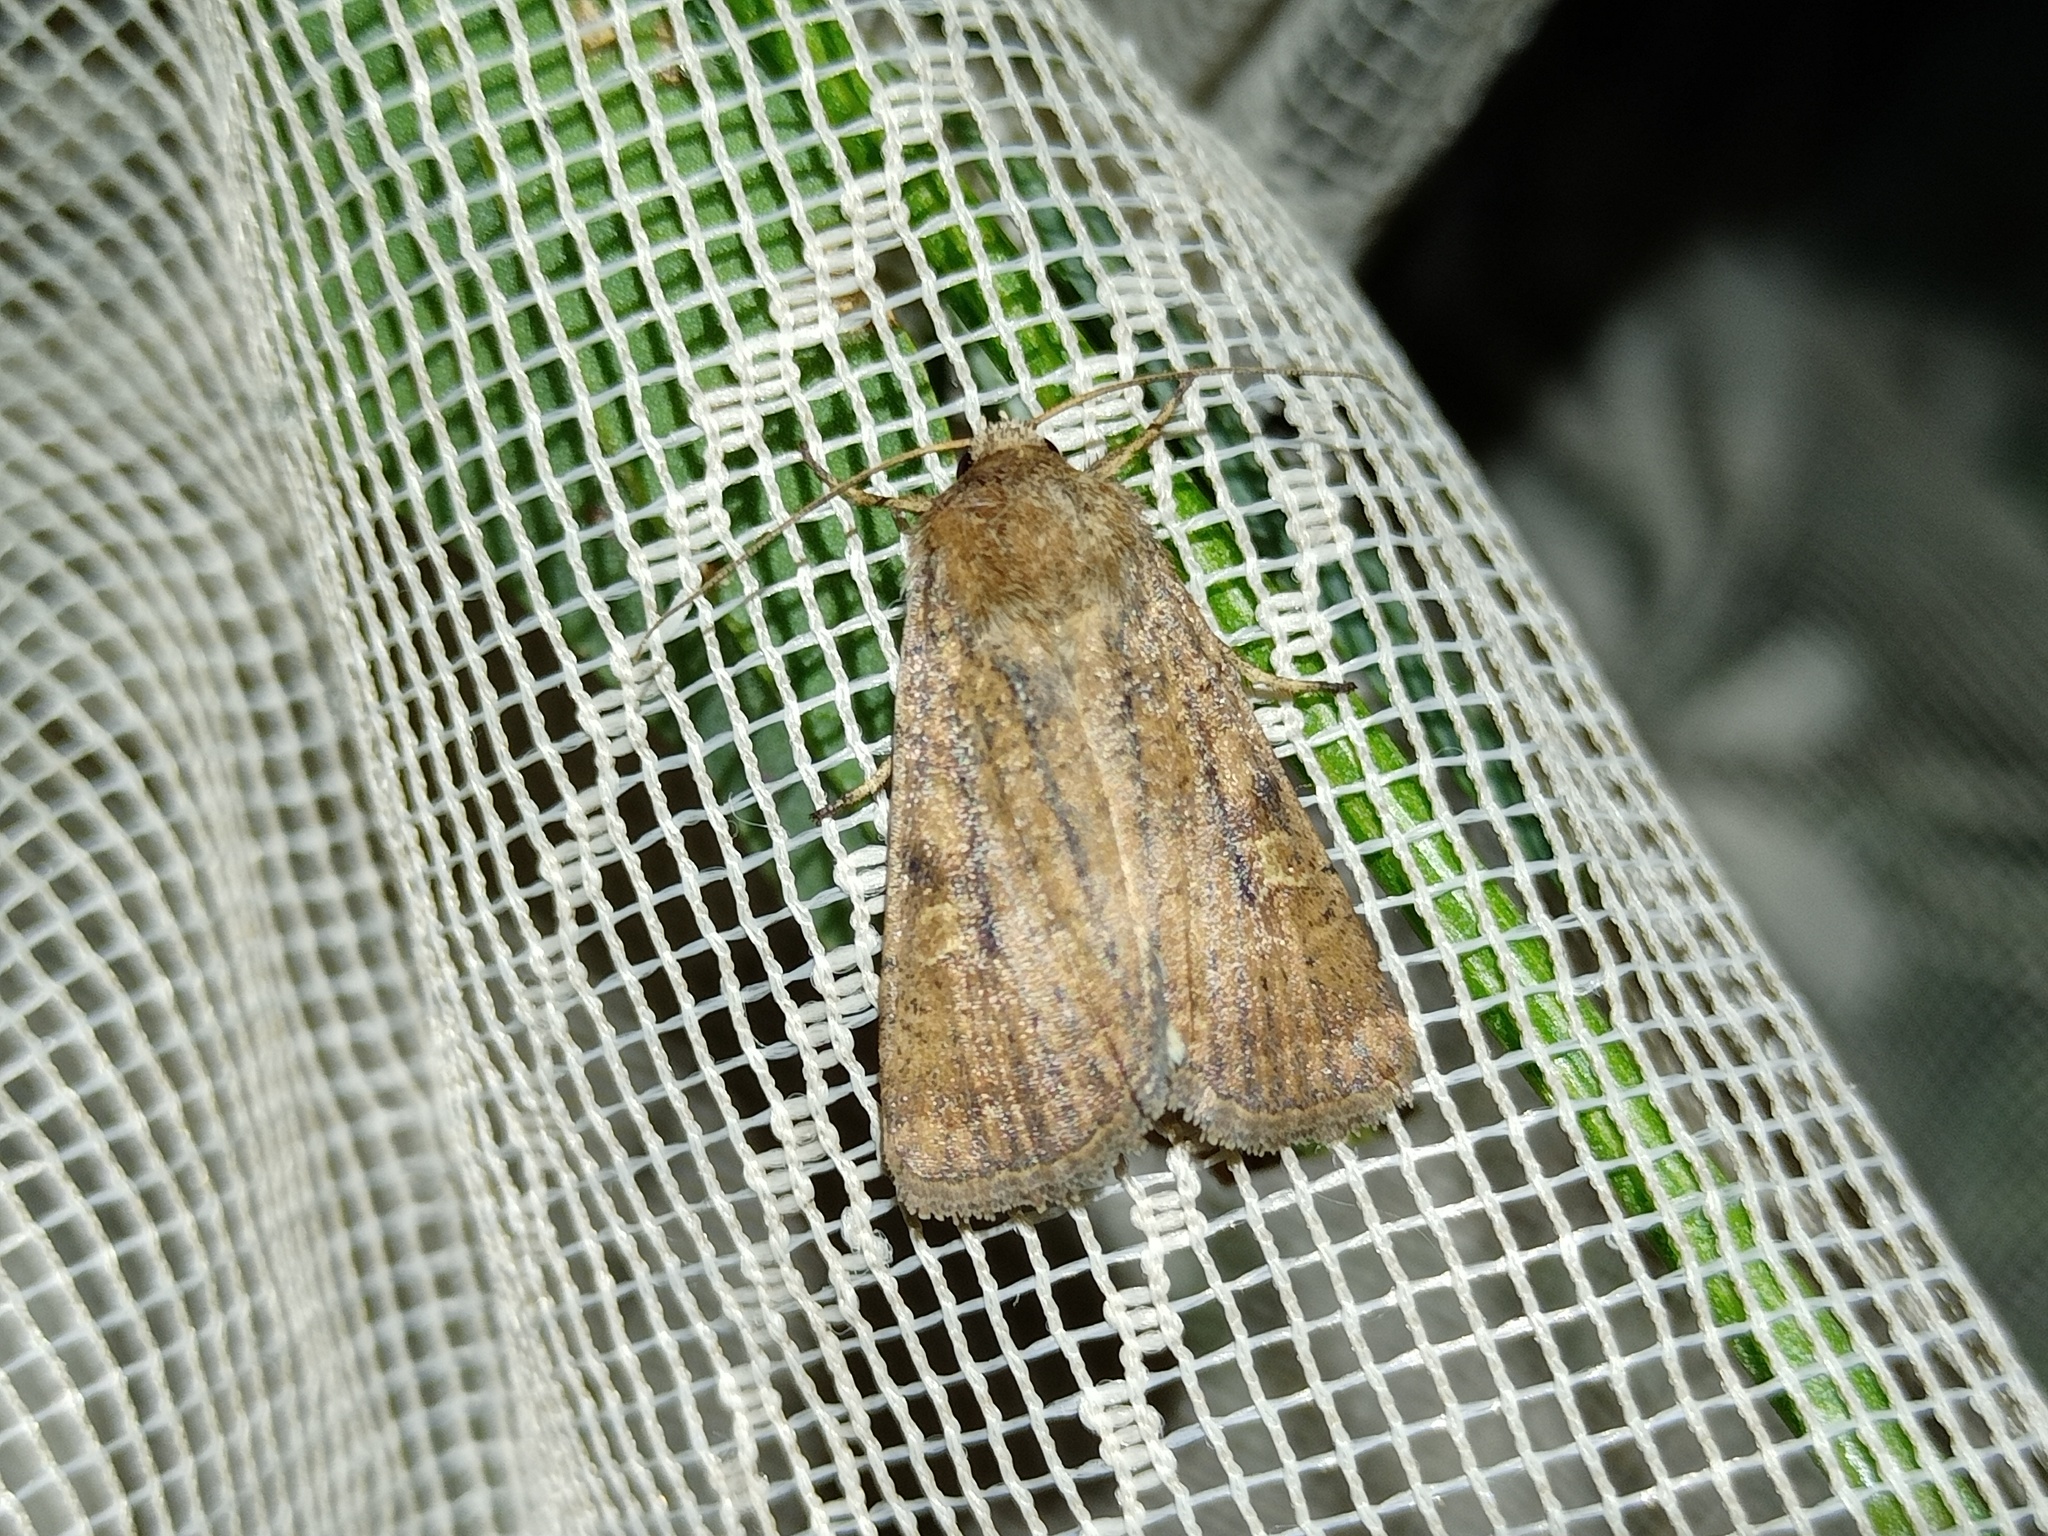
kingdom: Animalia
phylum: Arthropoda
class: Insecta
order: Lepidoptera
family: Noctuidae
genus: Xestia
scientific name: Xestia xanthographa
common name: Square-spot rustic
